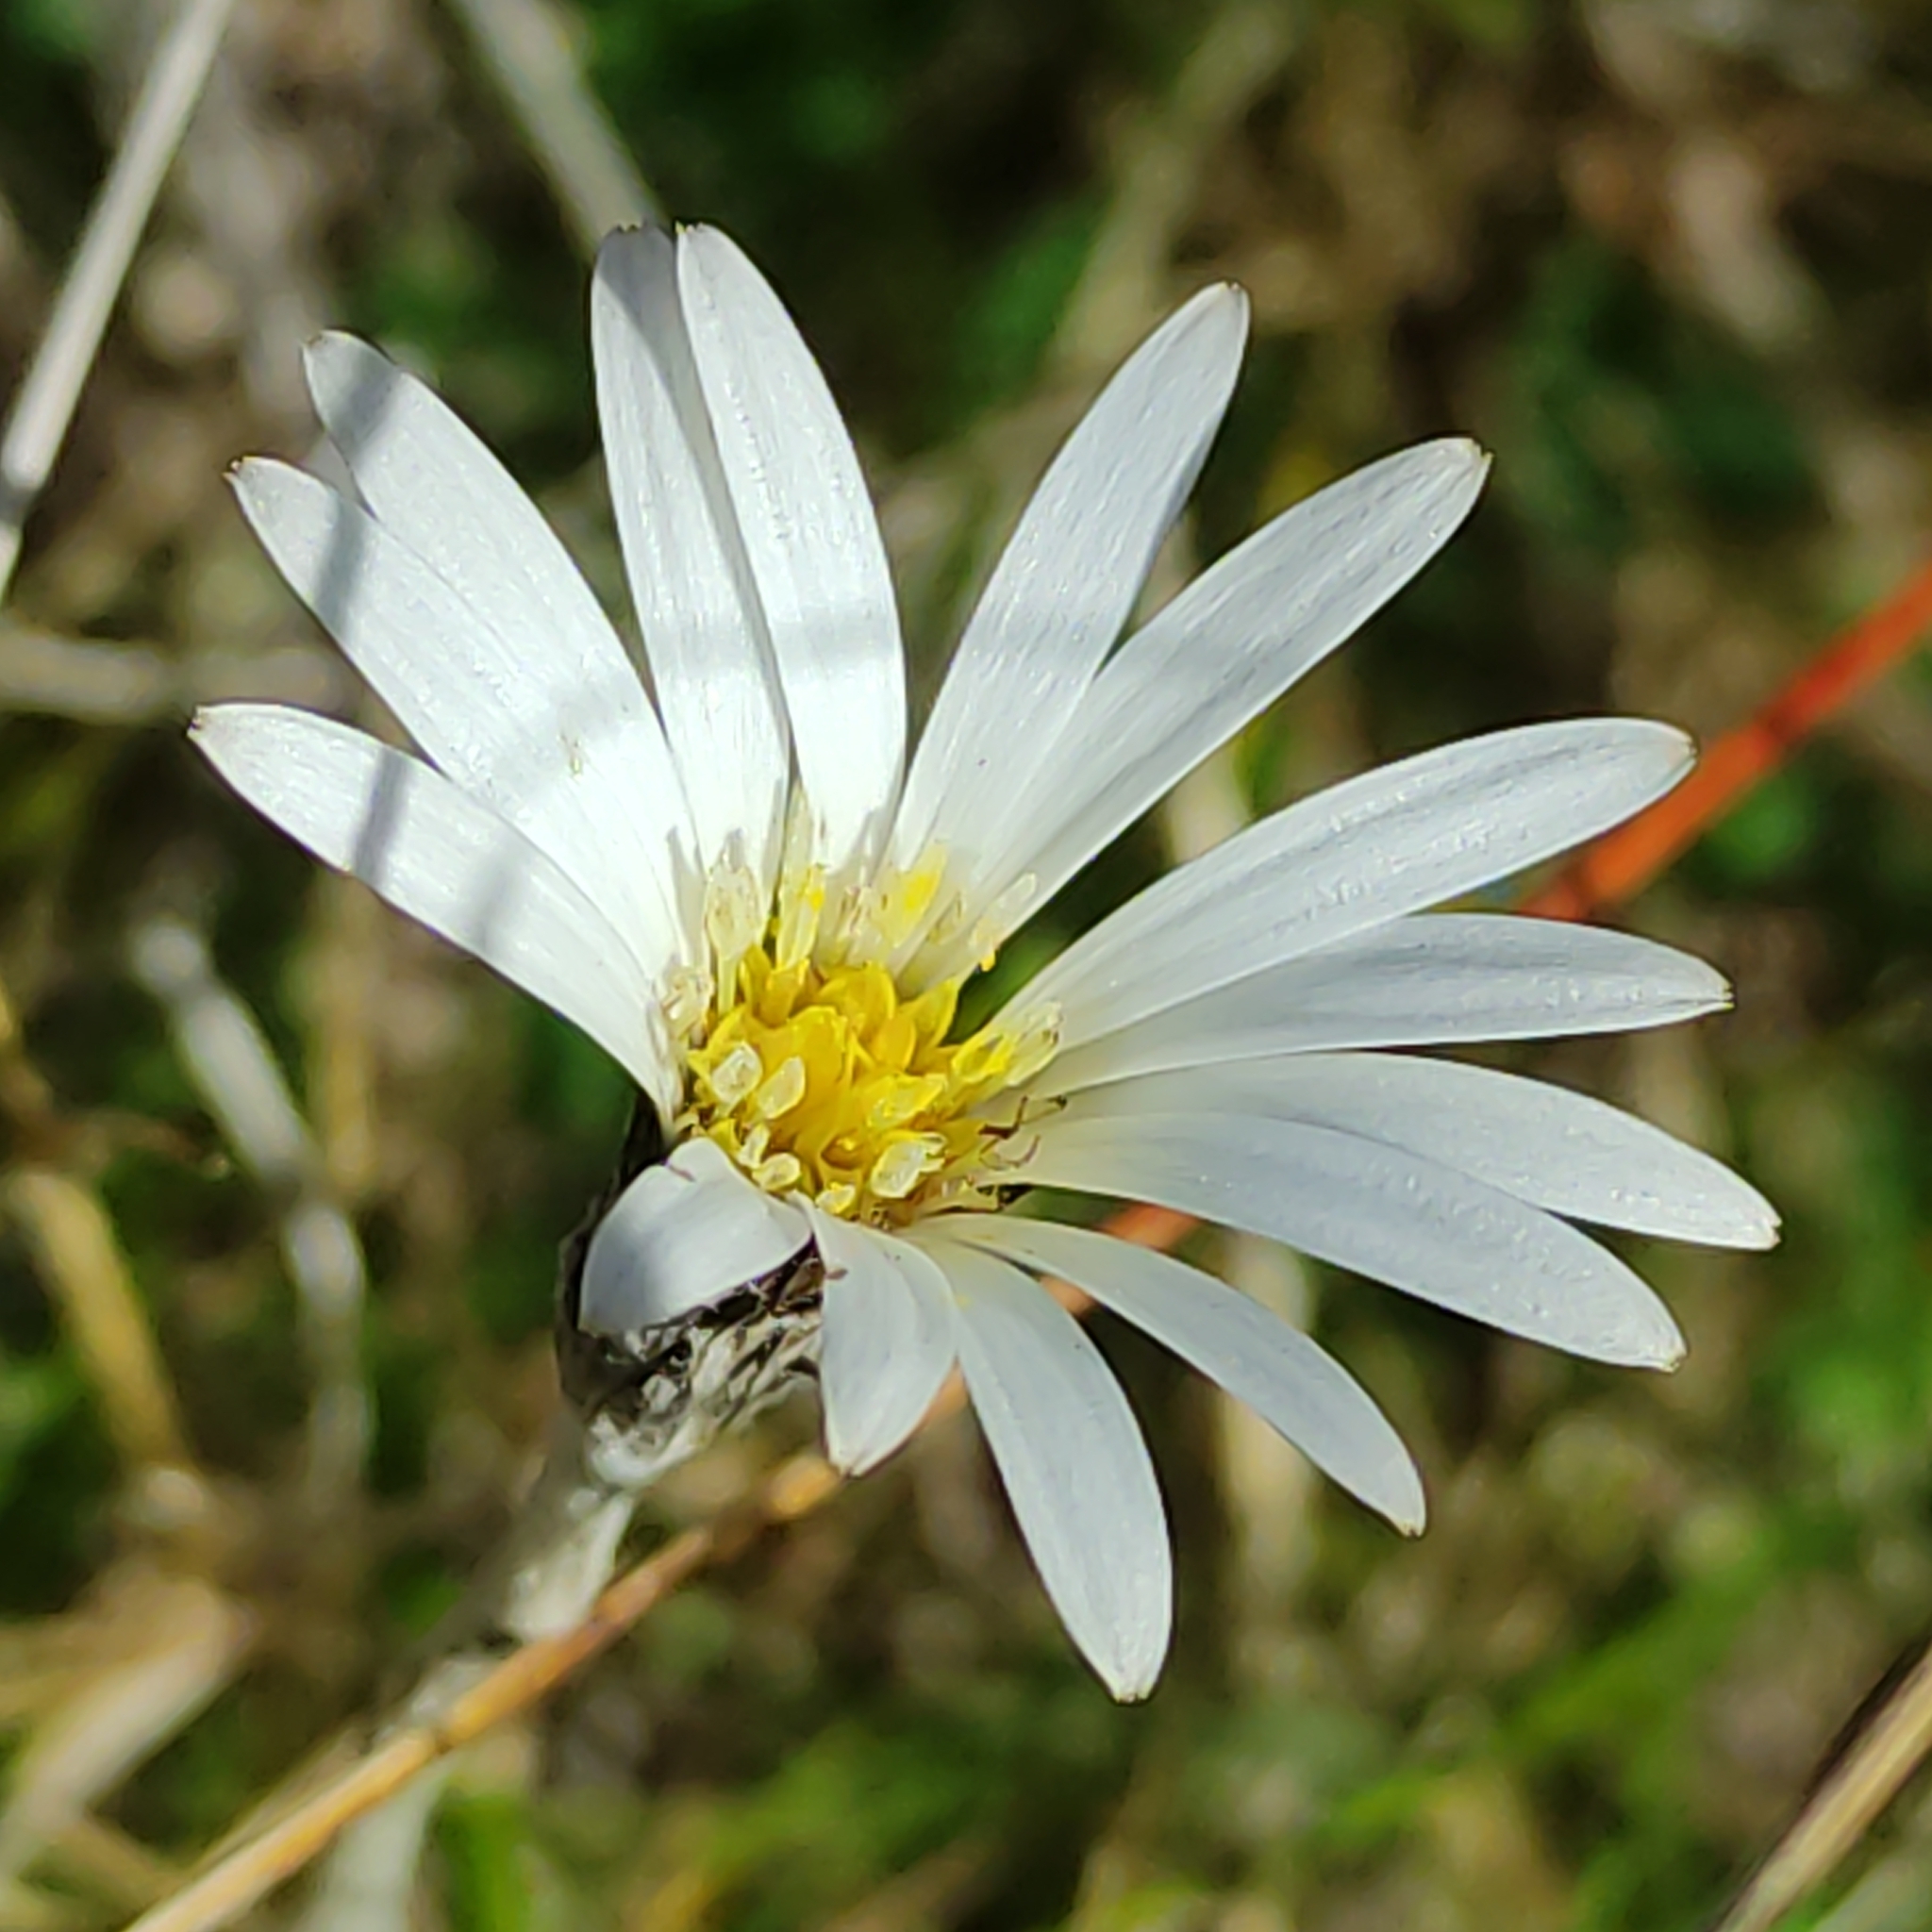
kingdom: Plantae
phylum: Tracheophyta
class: Magnoliopsida
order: Asterales
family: Asteraceae
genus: Celmisia
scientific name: Celmisia gracilenta
